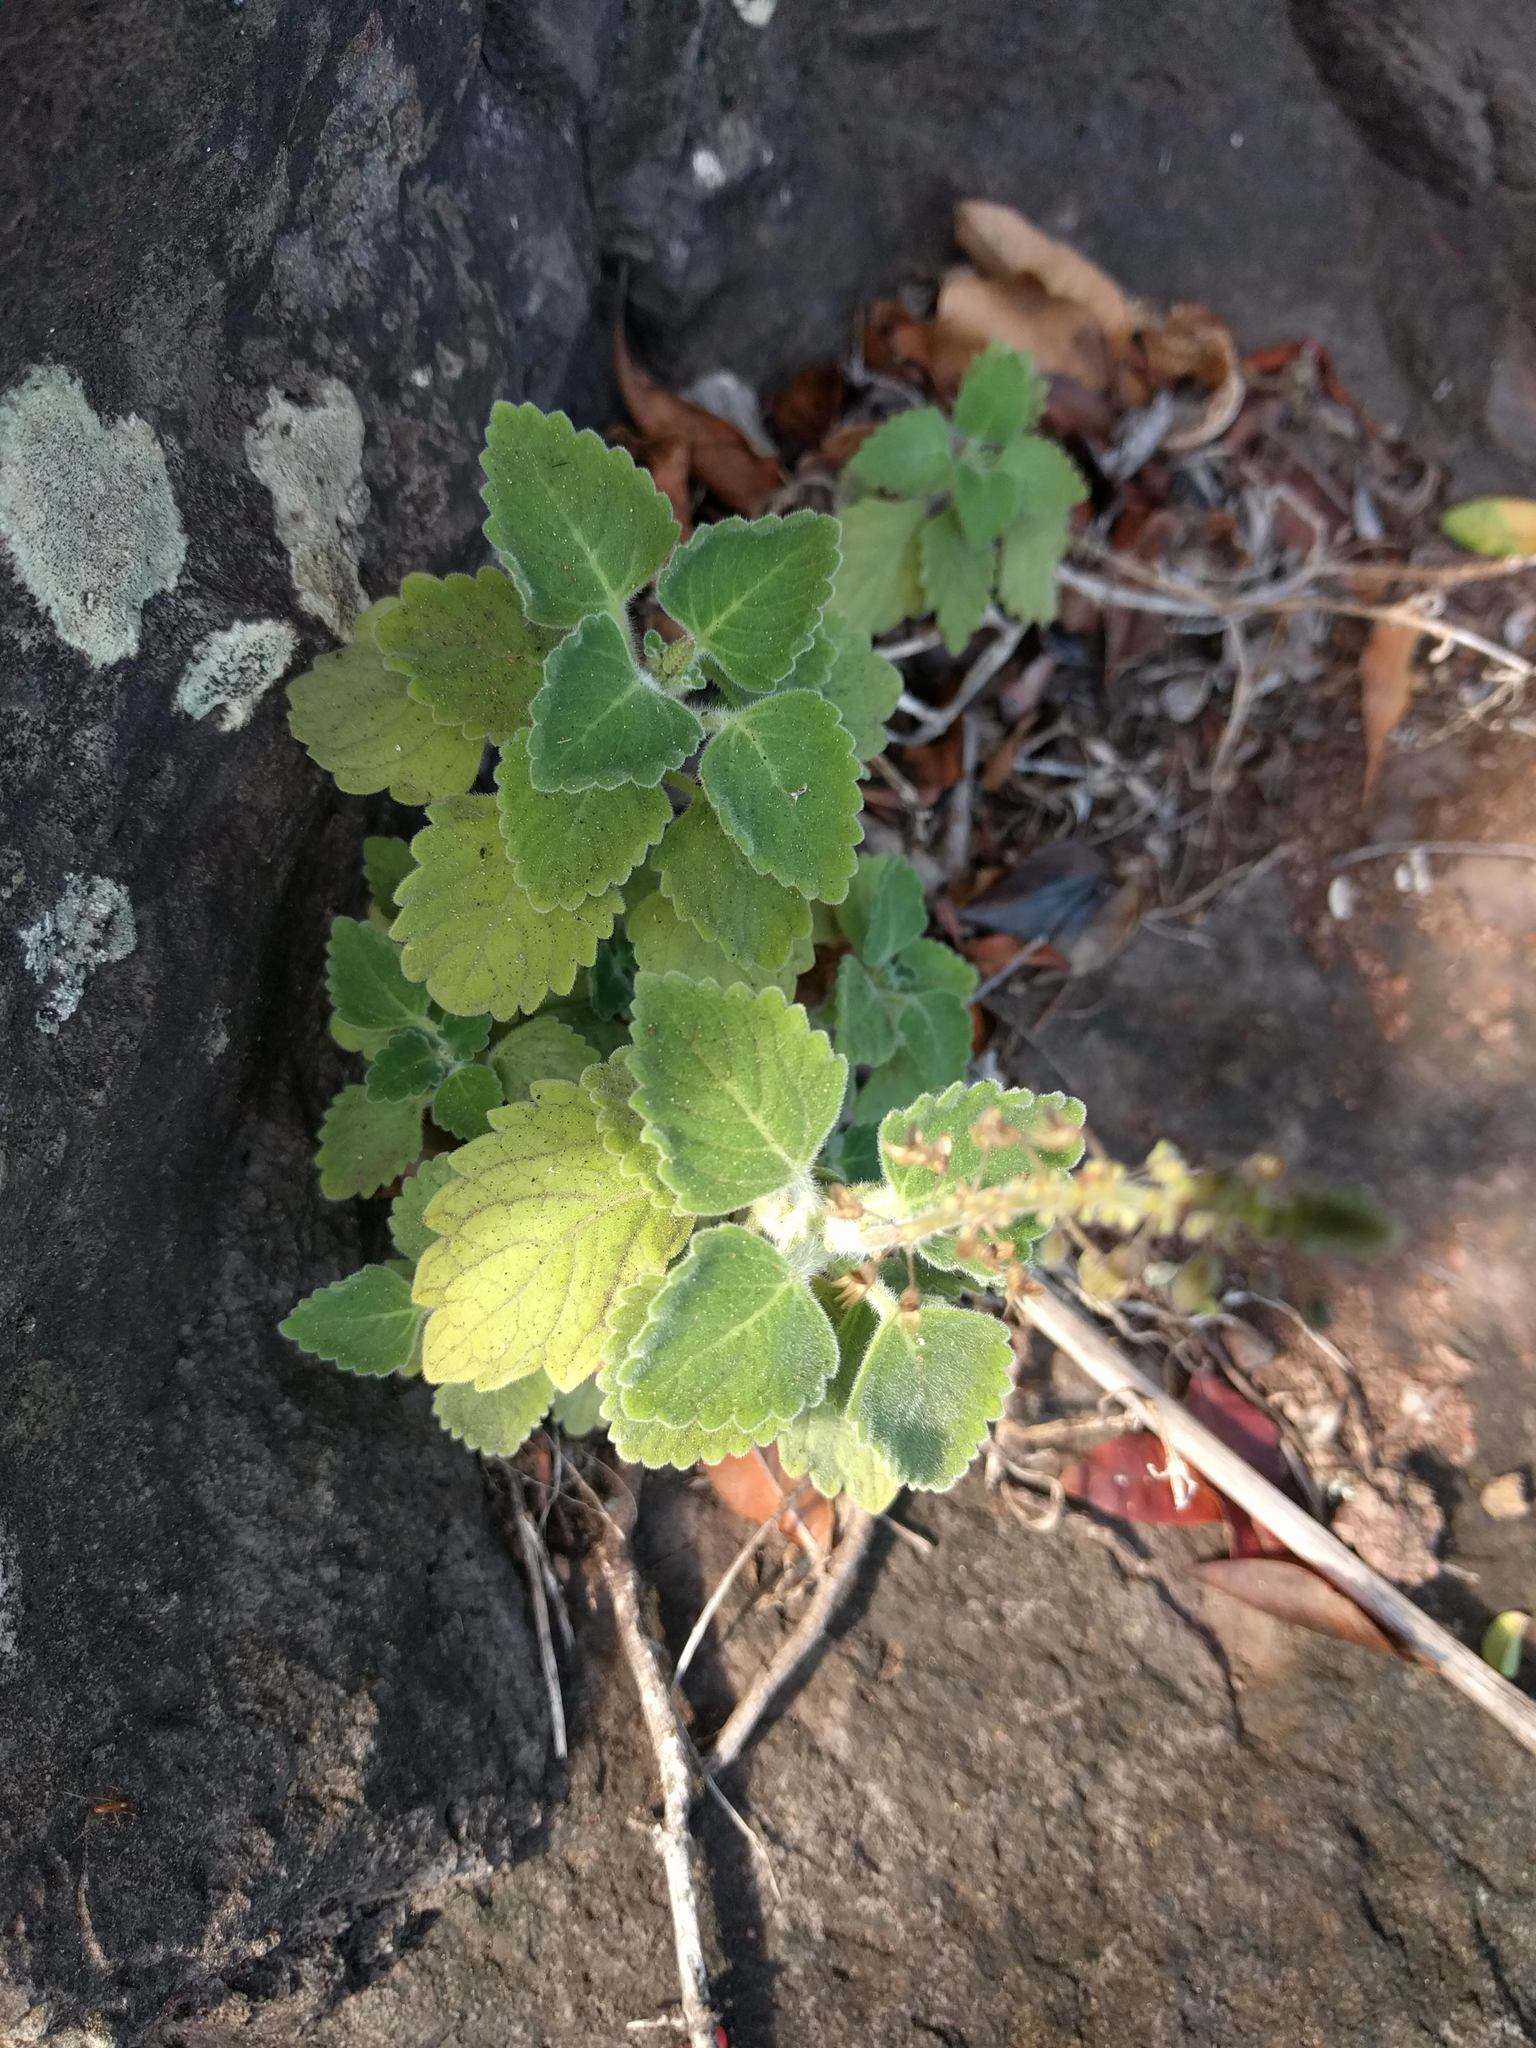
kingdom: Plantae
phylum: Tracheophyta
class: Magnoliopsida
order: Lamiales
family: Lamiaceae
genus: Coleus
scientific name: Coleus australis
